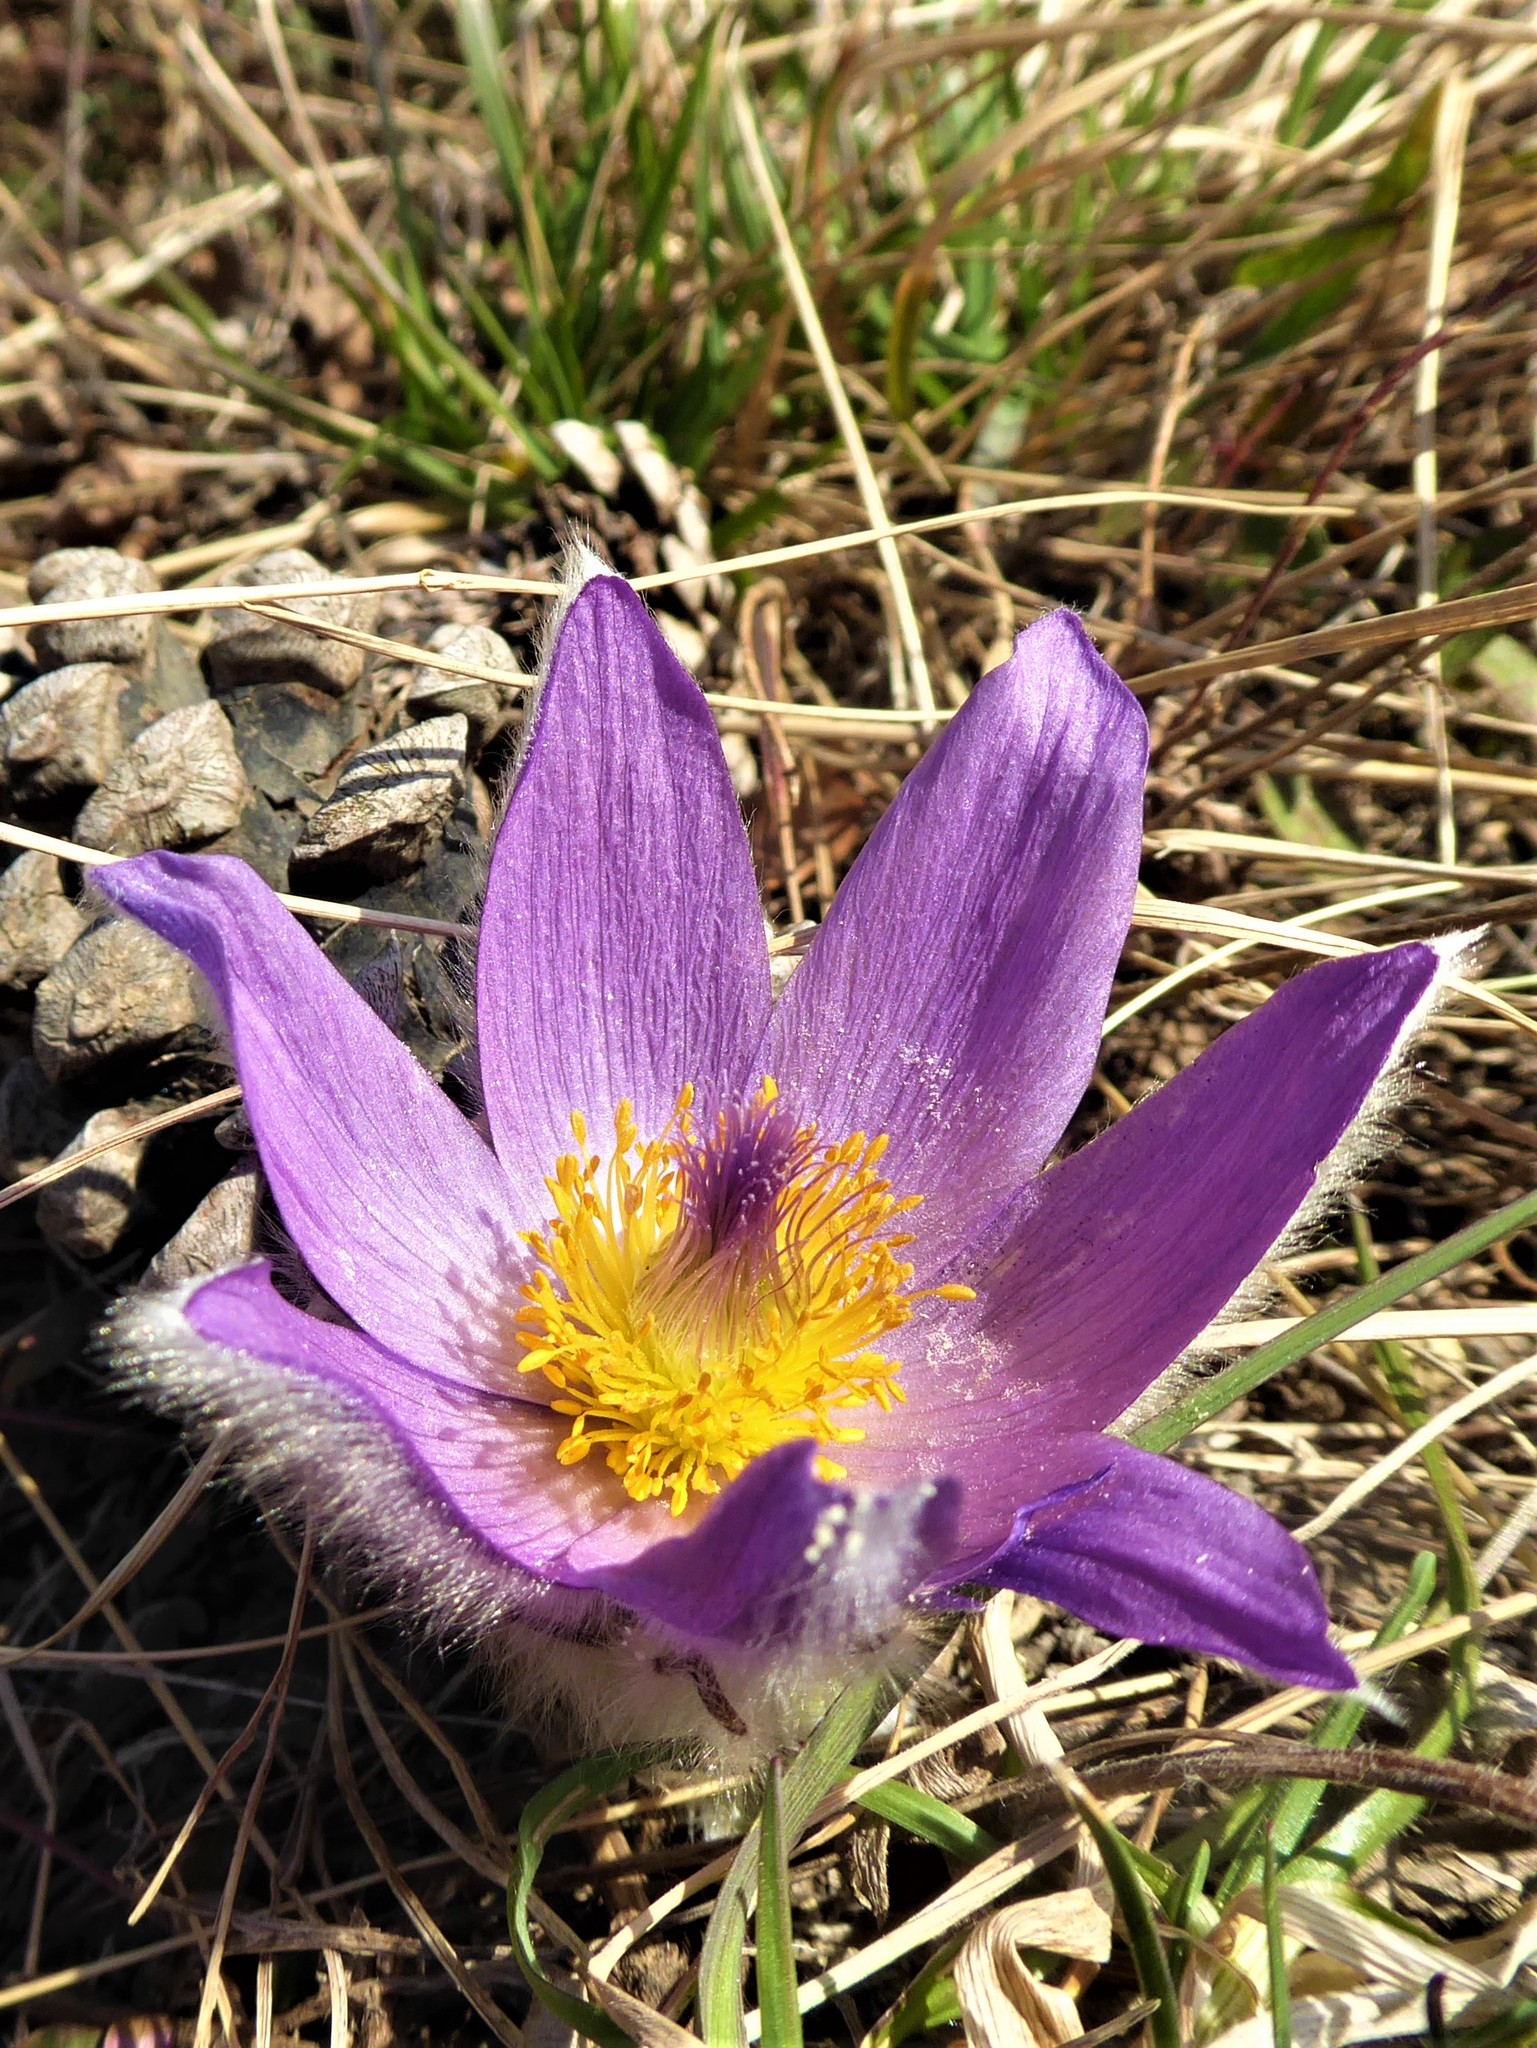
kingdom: Plantae
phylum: Tracheophyta
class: Magnoliopsida
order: Ranunculales
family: Ranunculaceae
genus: Pulsatilla
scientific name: Pulsatilla grandis
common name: Greater pasque flower
